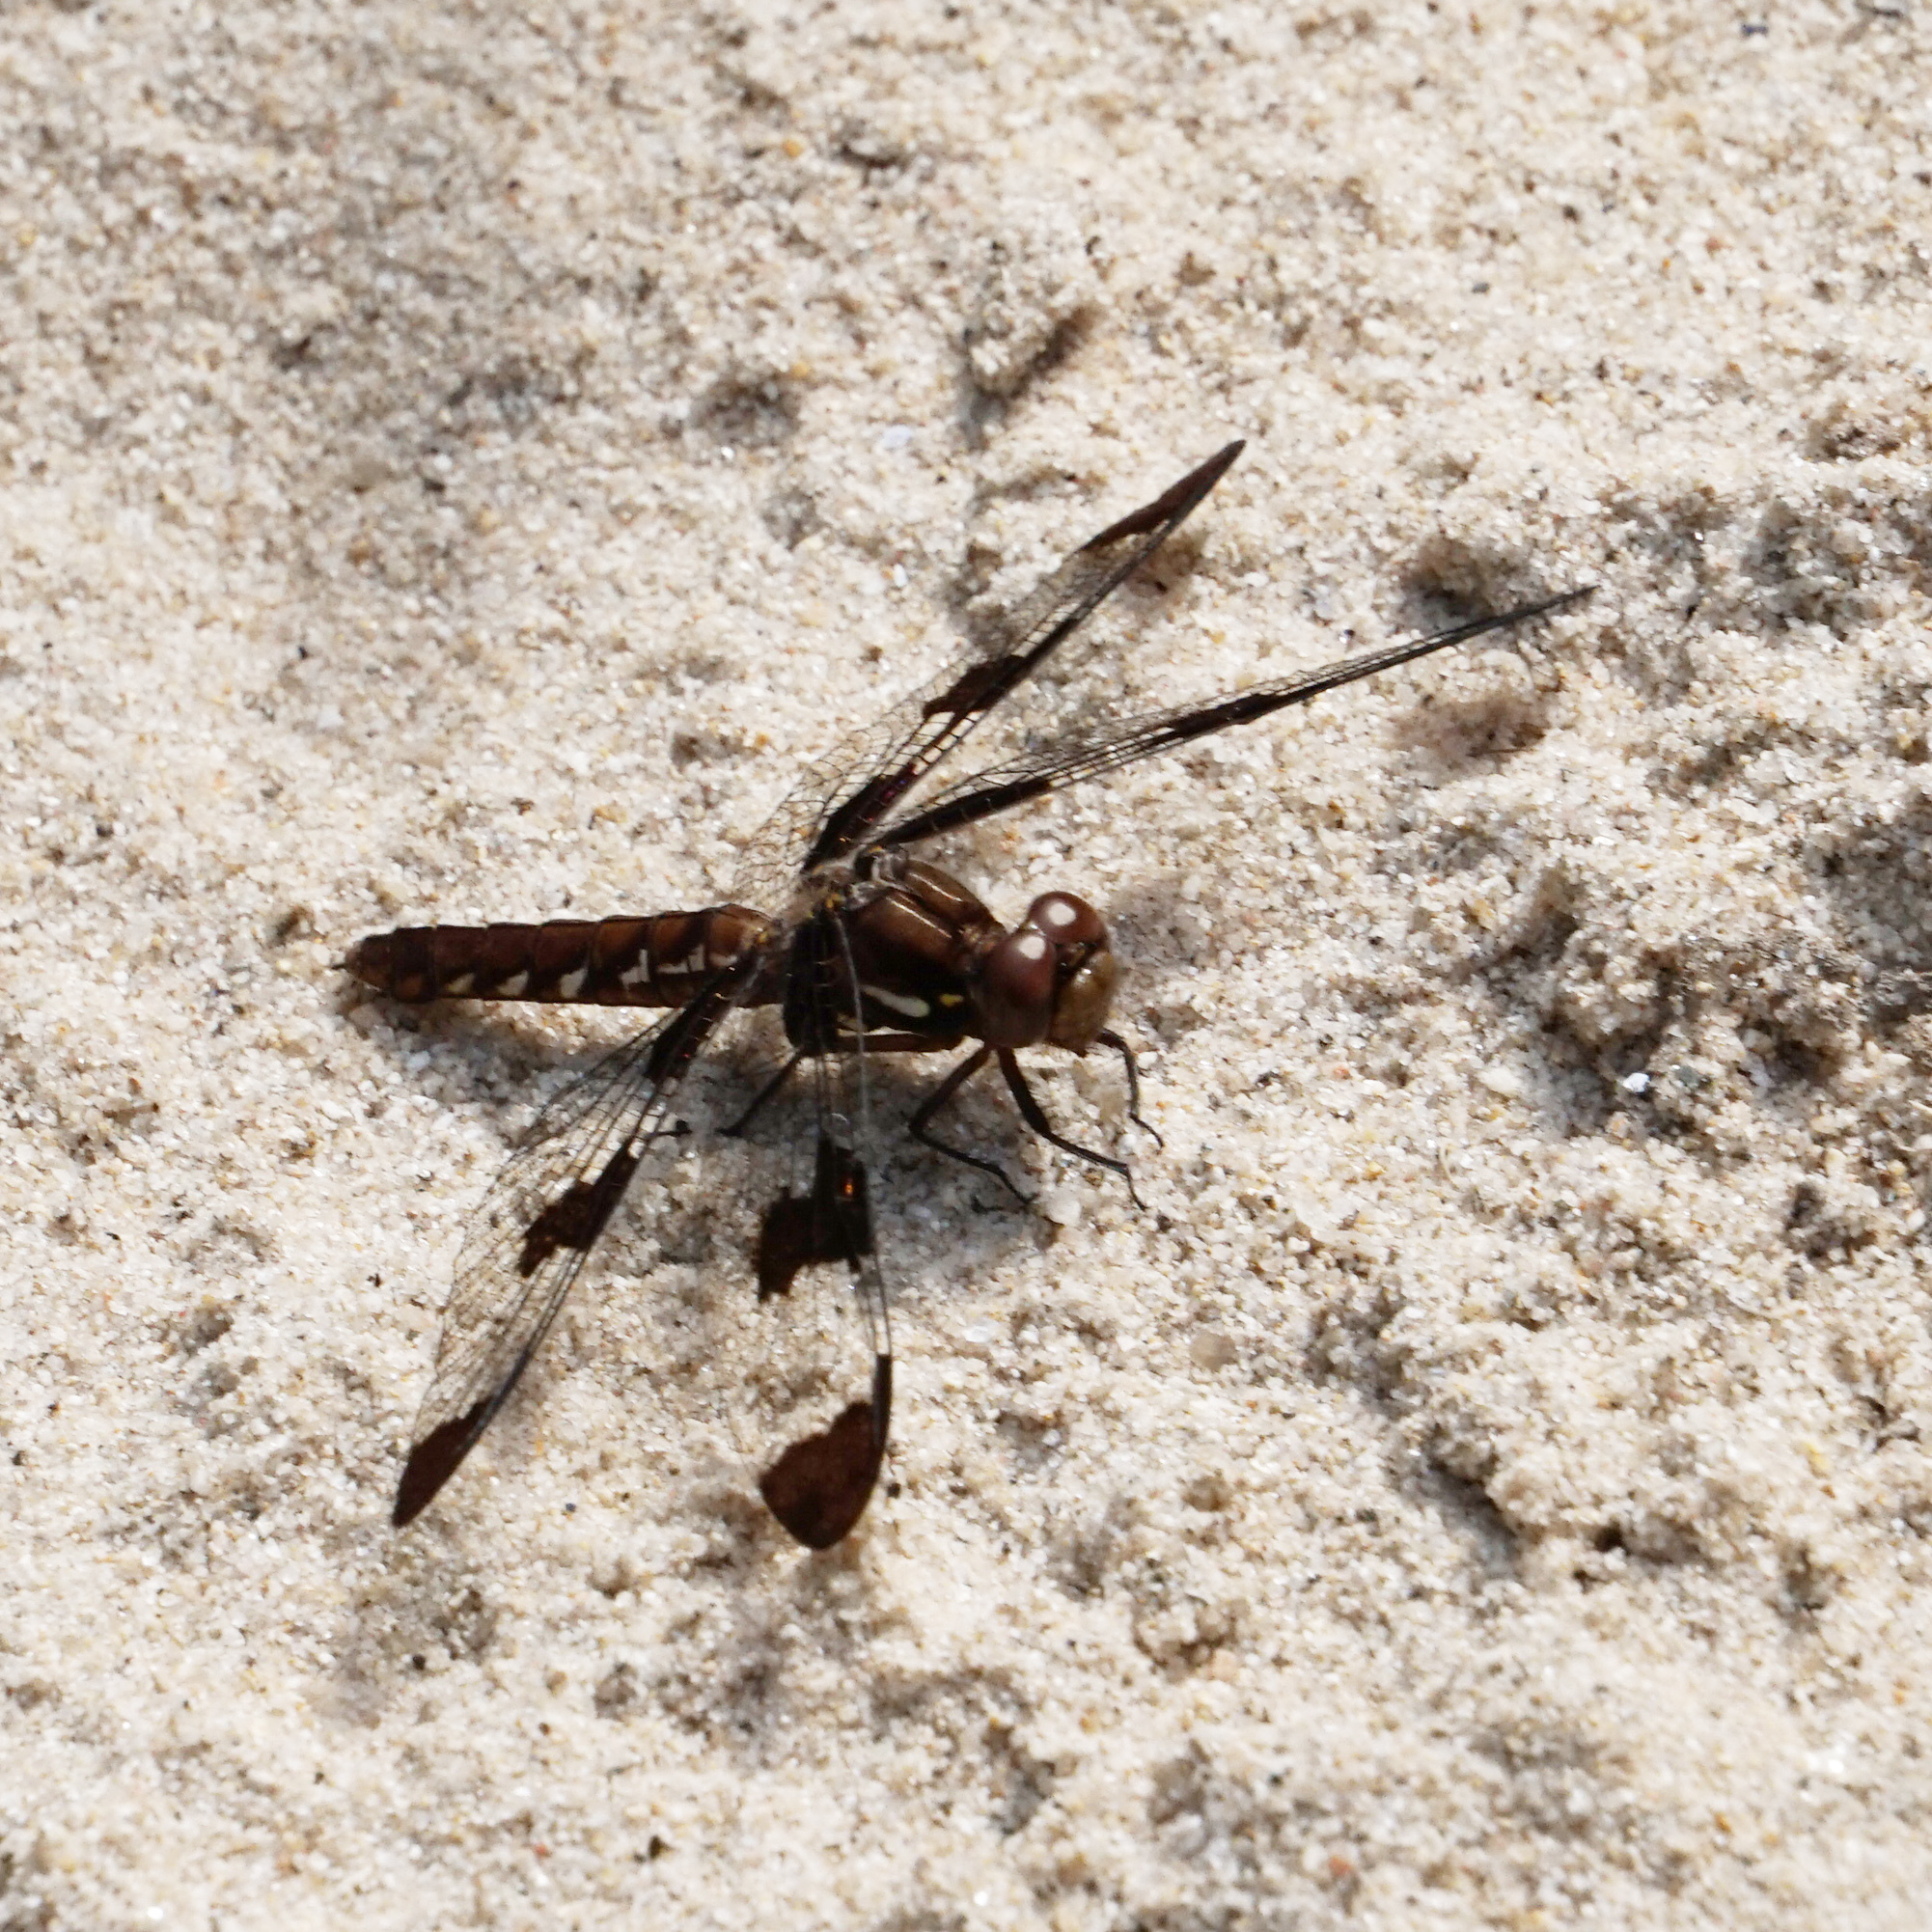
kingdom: Animalia
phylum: Arthropoda
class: Insecta
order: Odonata
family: Libellulidae
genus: Plathemis
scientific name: Plathemis lydia
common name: Common whitetail
